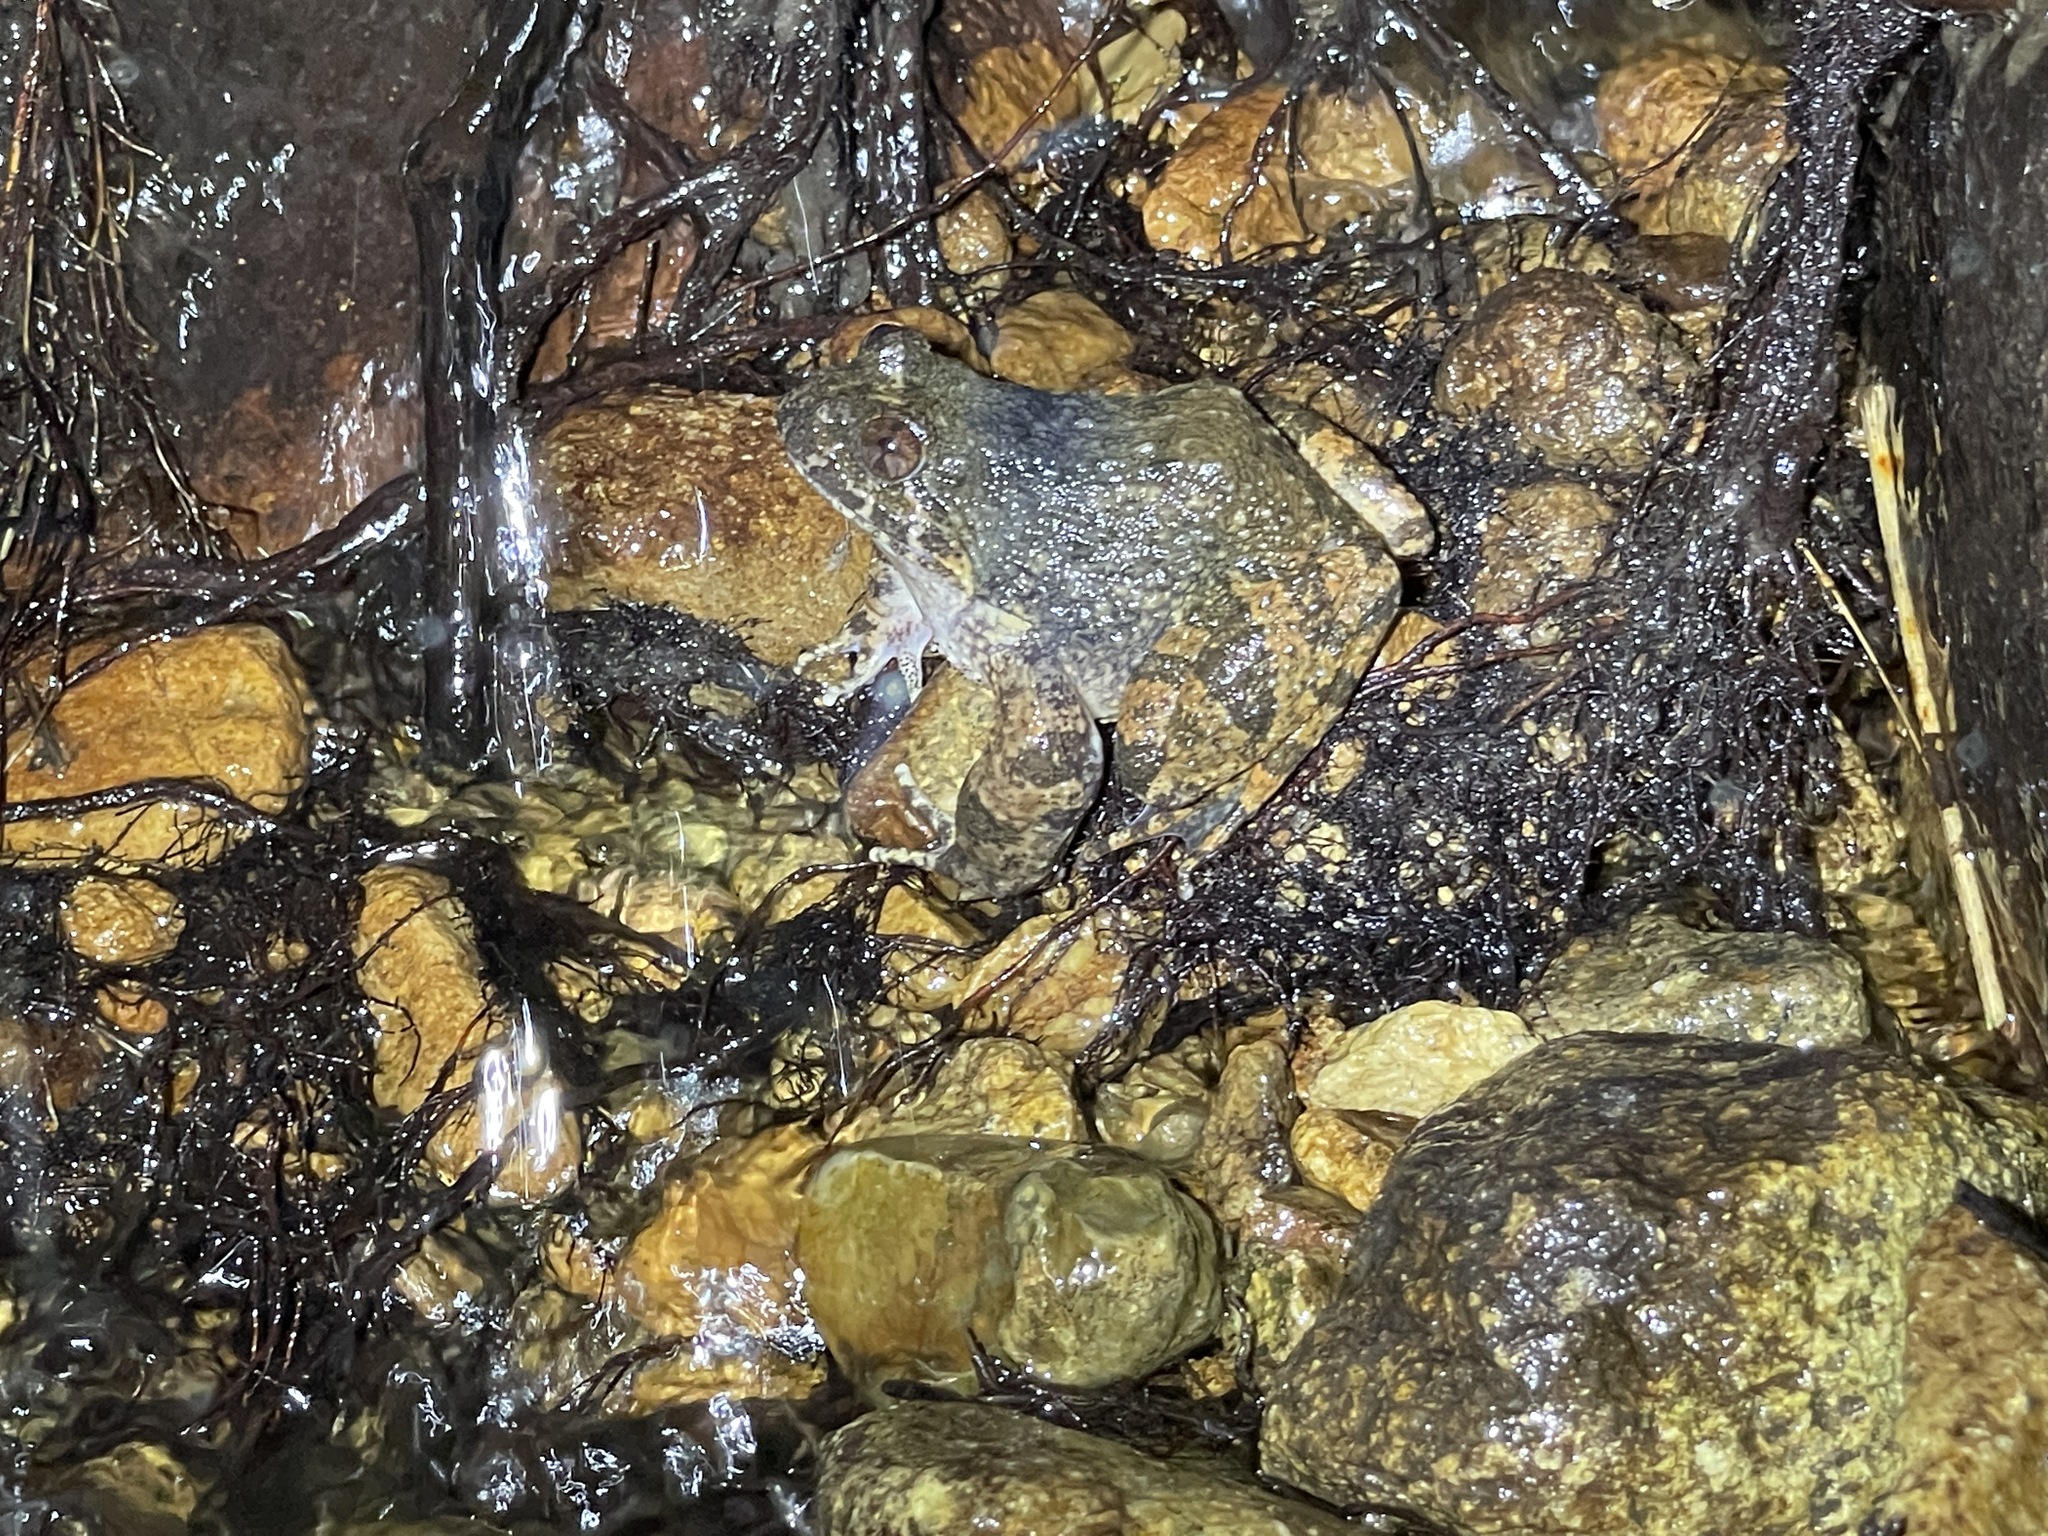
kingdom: Animalia
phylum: Chordata
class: Amphibia
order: Anura
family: Dicroglossidae
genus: Quasipaa
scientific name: Quasipaa exilispinosa
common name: Hong kong paa frog
